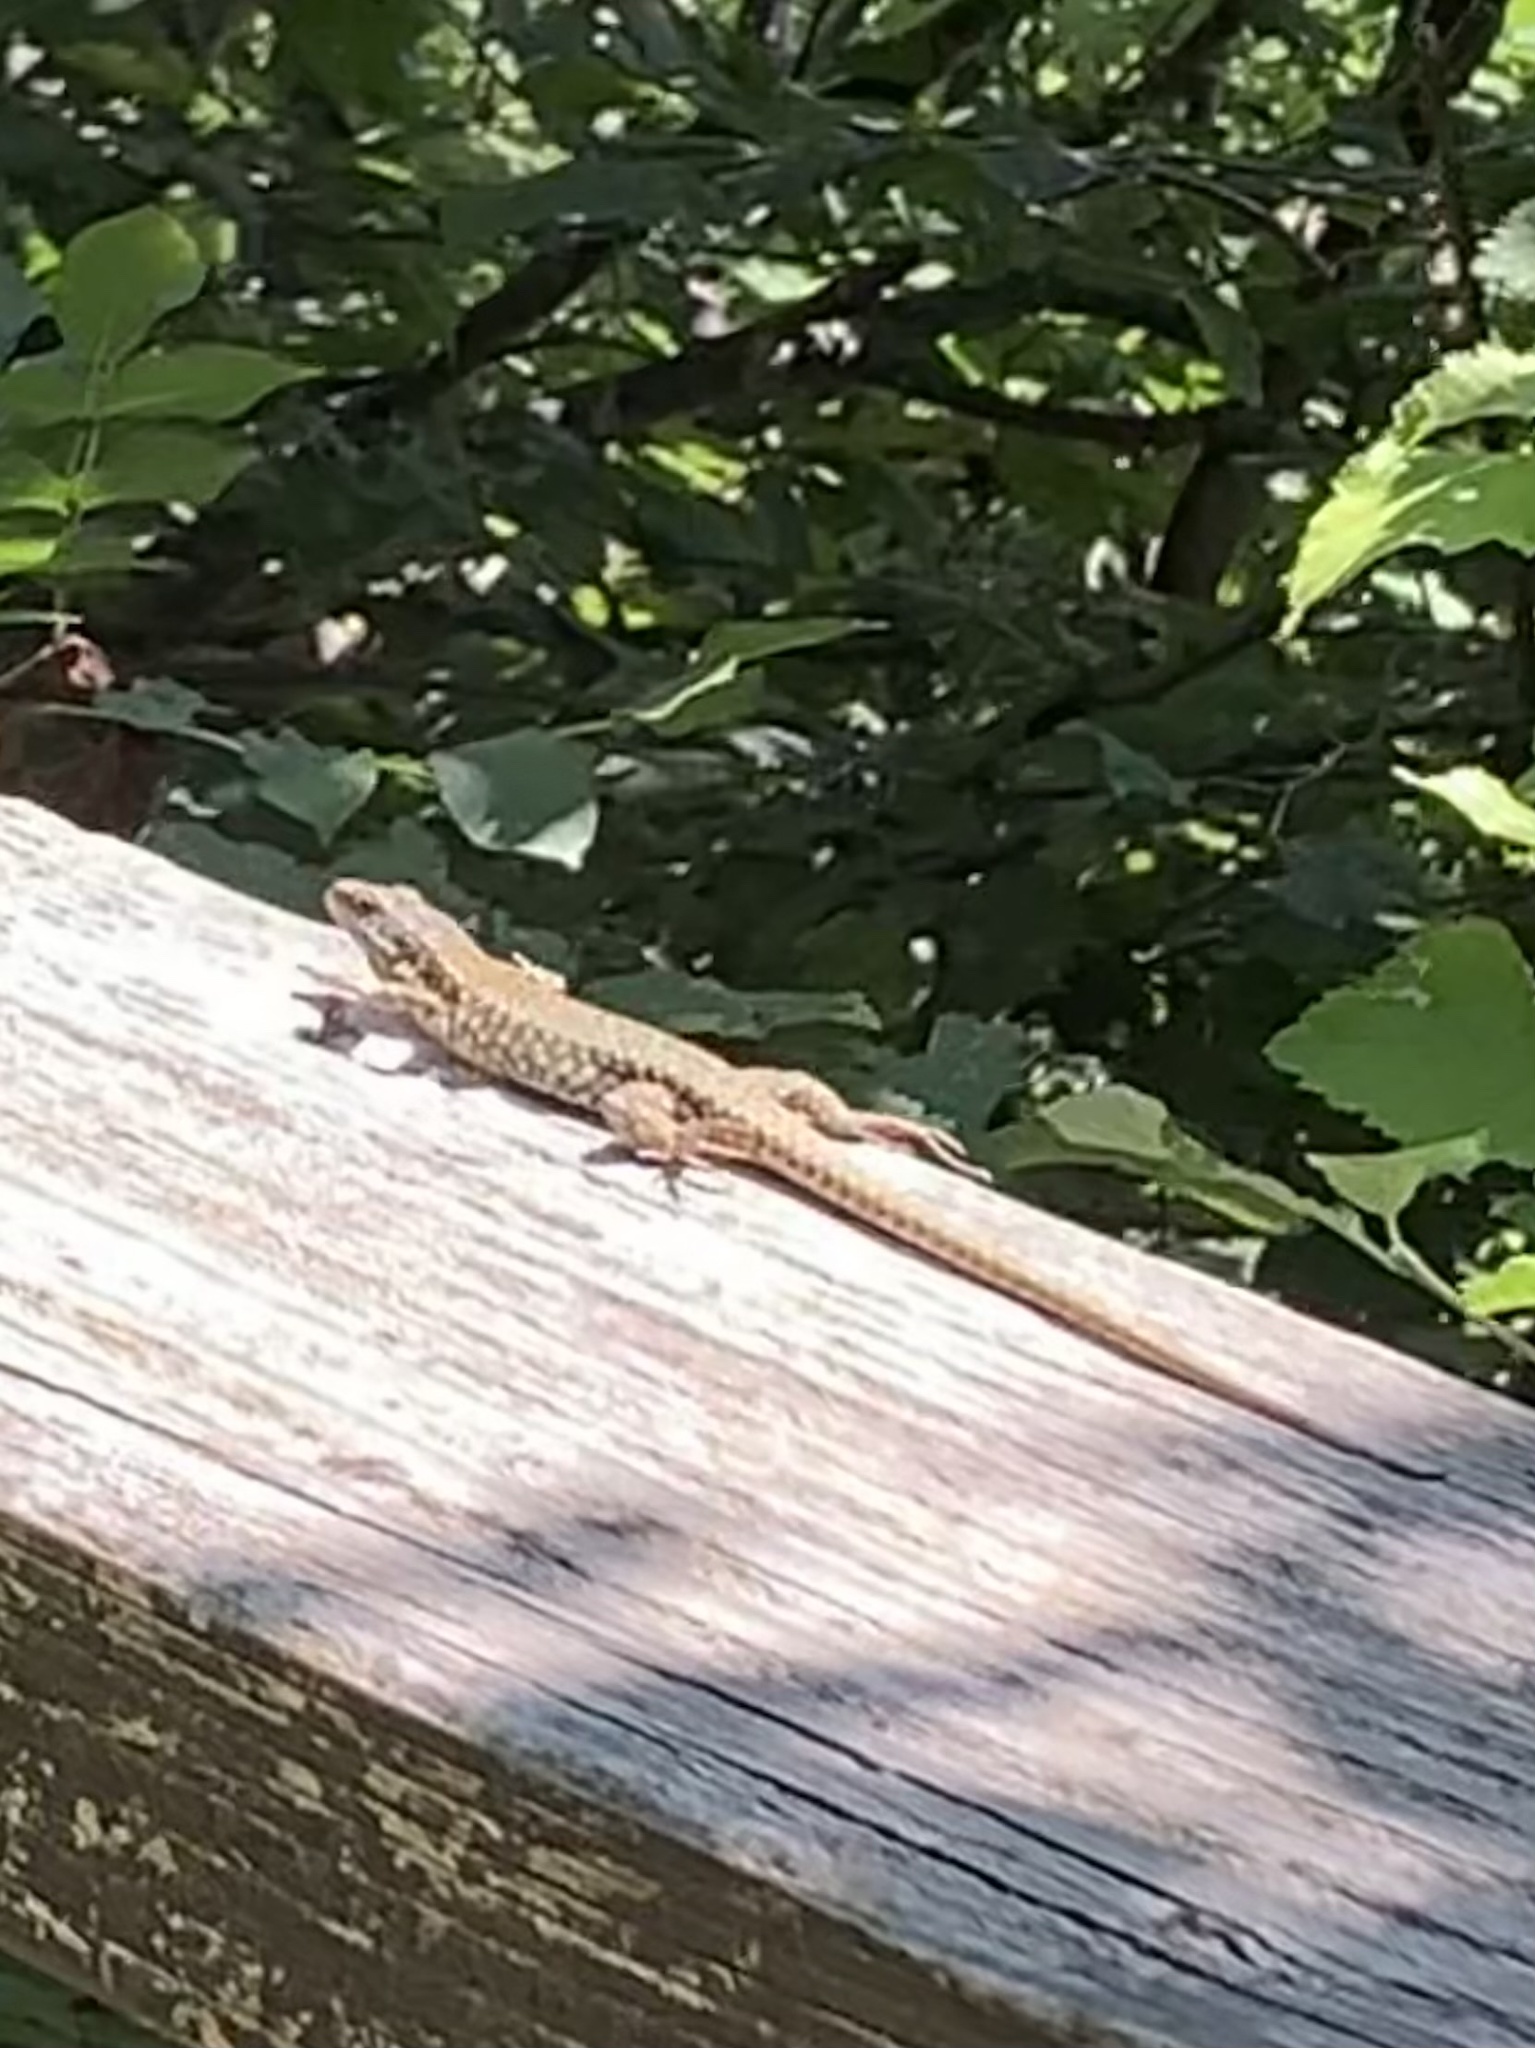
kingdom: Animalia
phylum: Chordata
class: Squamata
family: Lacertidae
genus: Podarcis
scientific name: Podarcis muralis
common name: Common wall lizard
